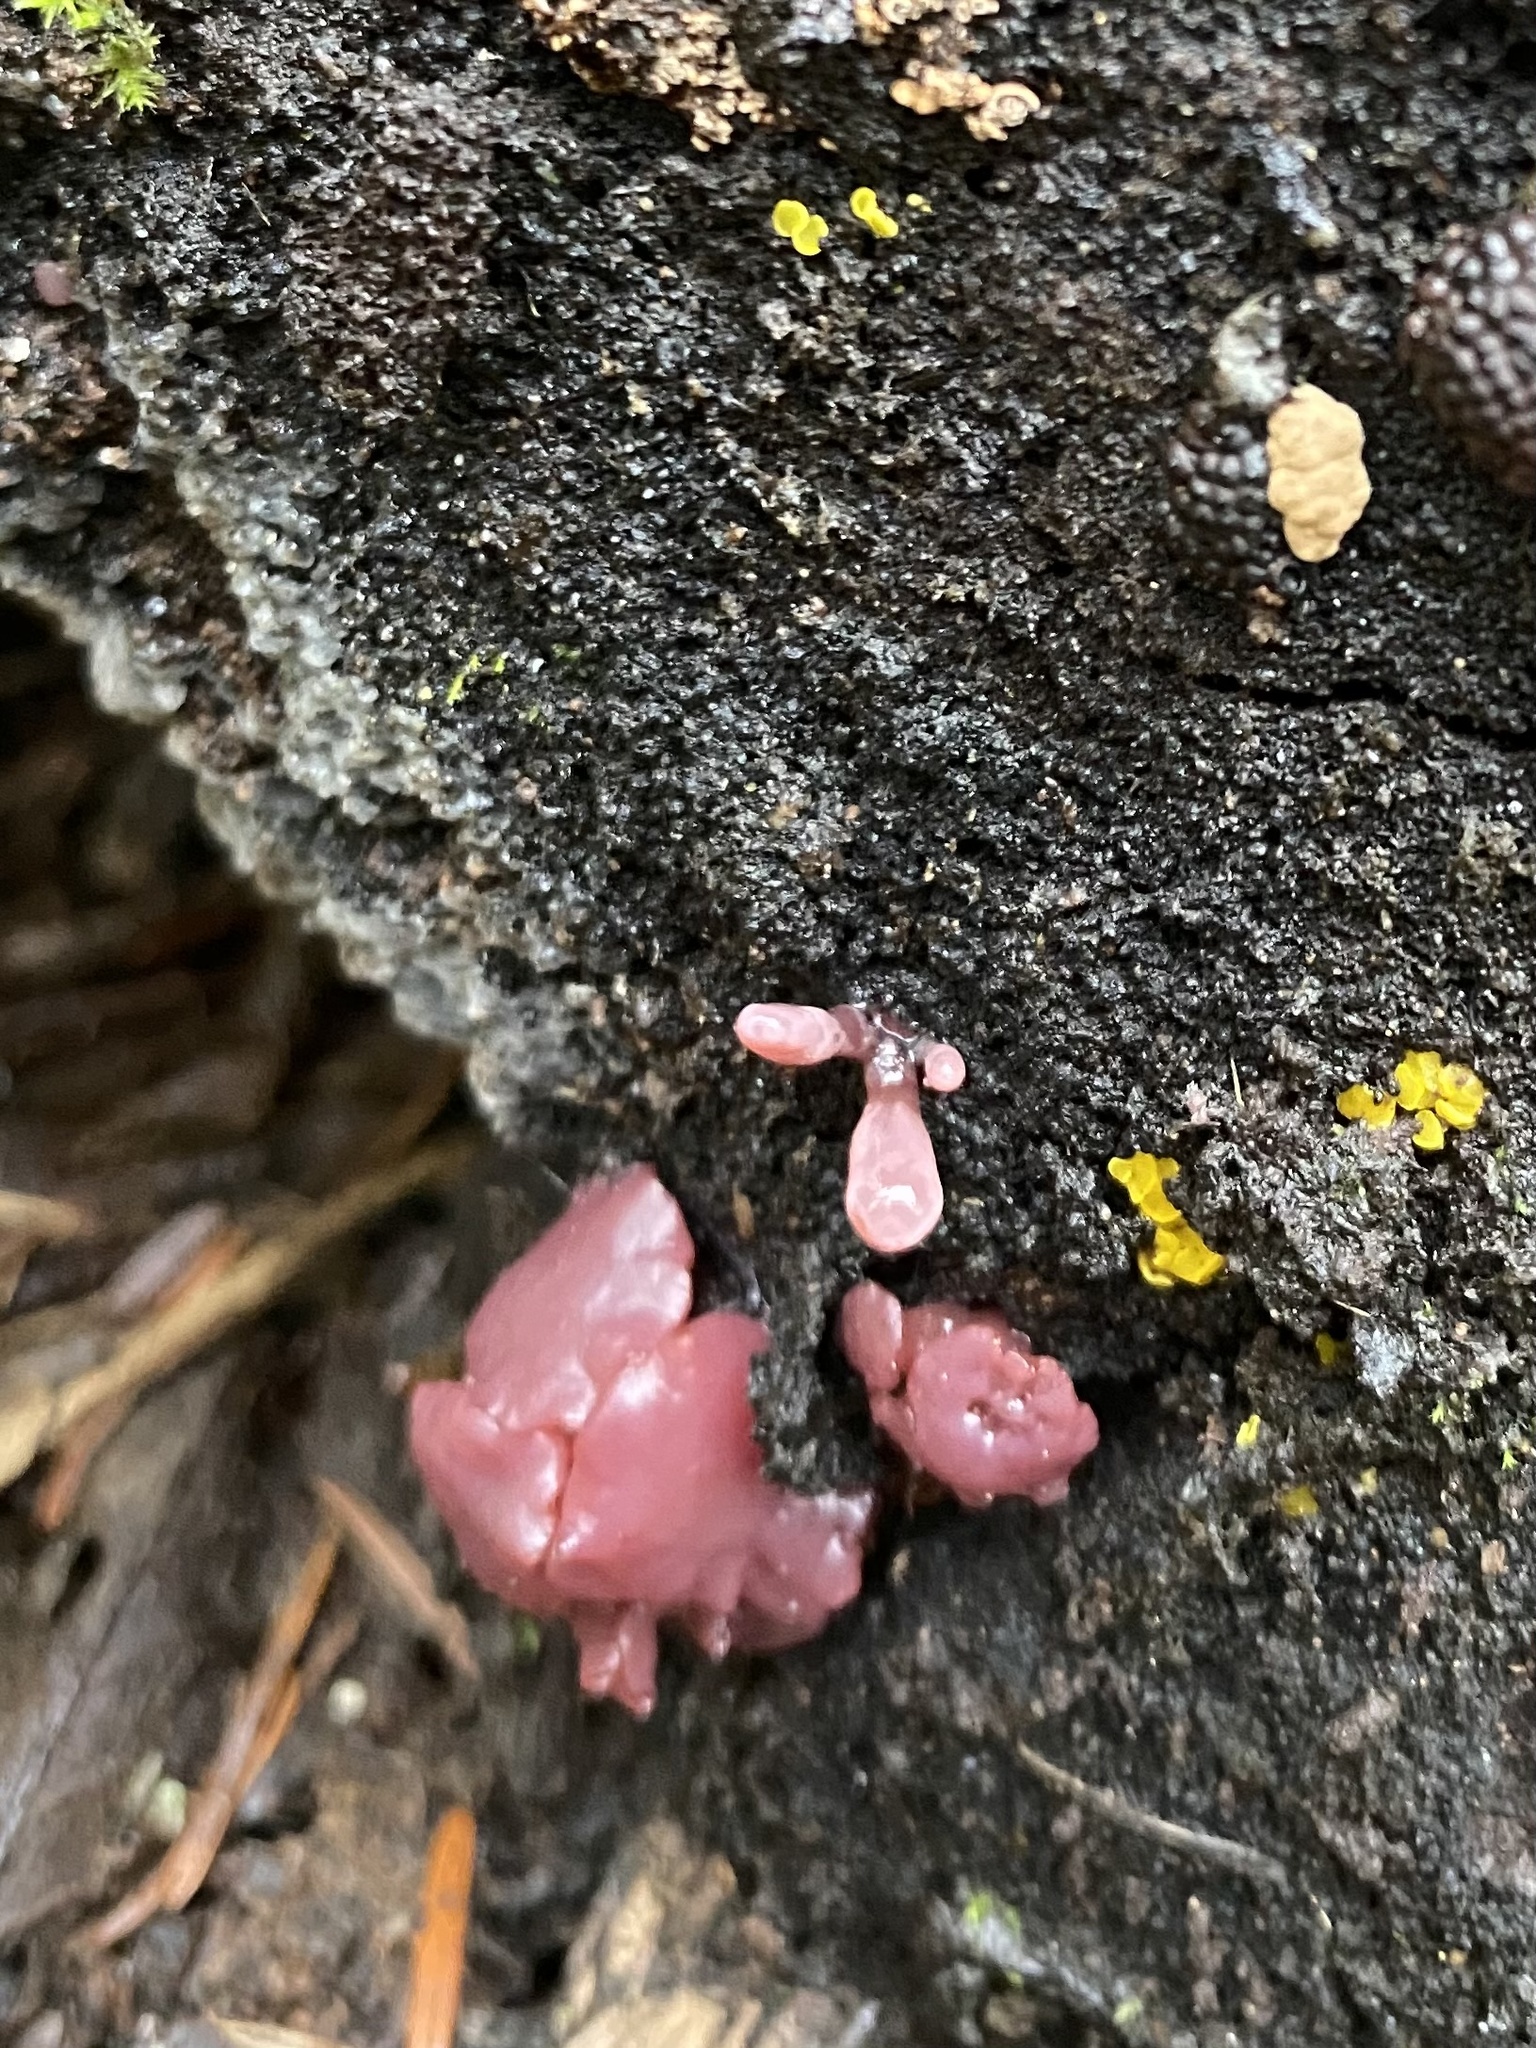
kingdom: Fungi
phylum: Ascomycota
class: Leotiomycetes
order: Helotiales
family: Gelatinodiscaceae
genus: Ascocoryne
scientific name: Ascocoryne sarcoides
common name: Purple jellydisc
